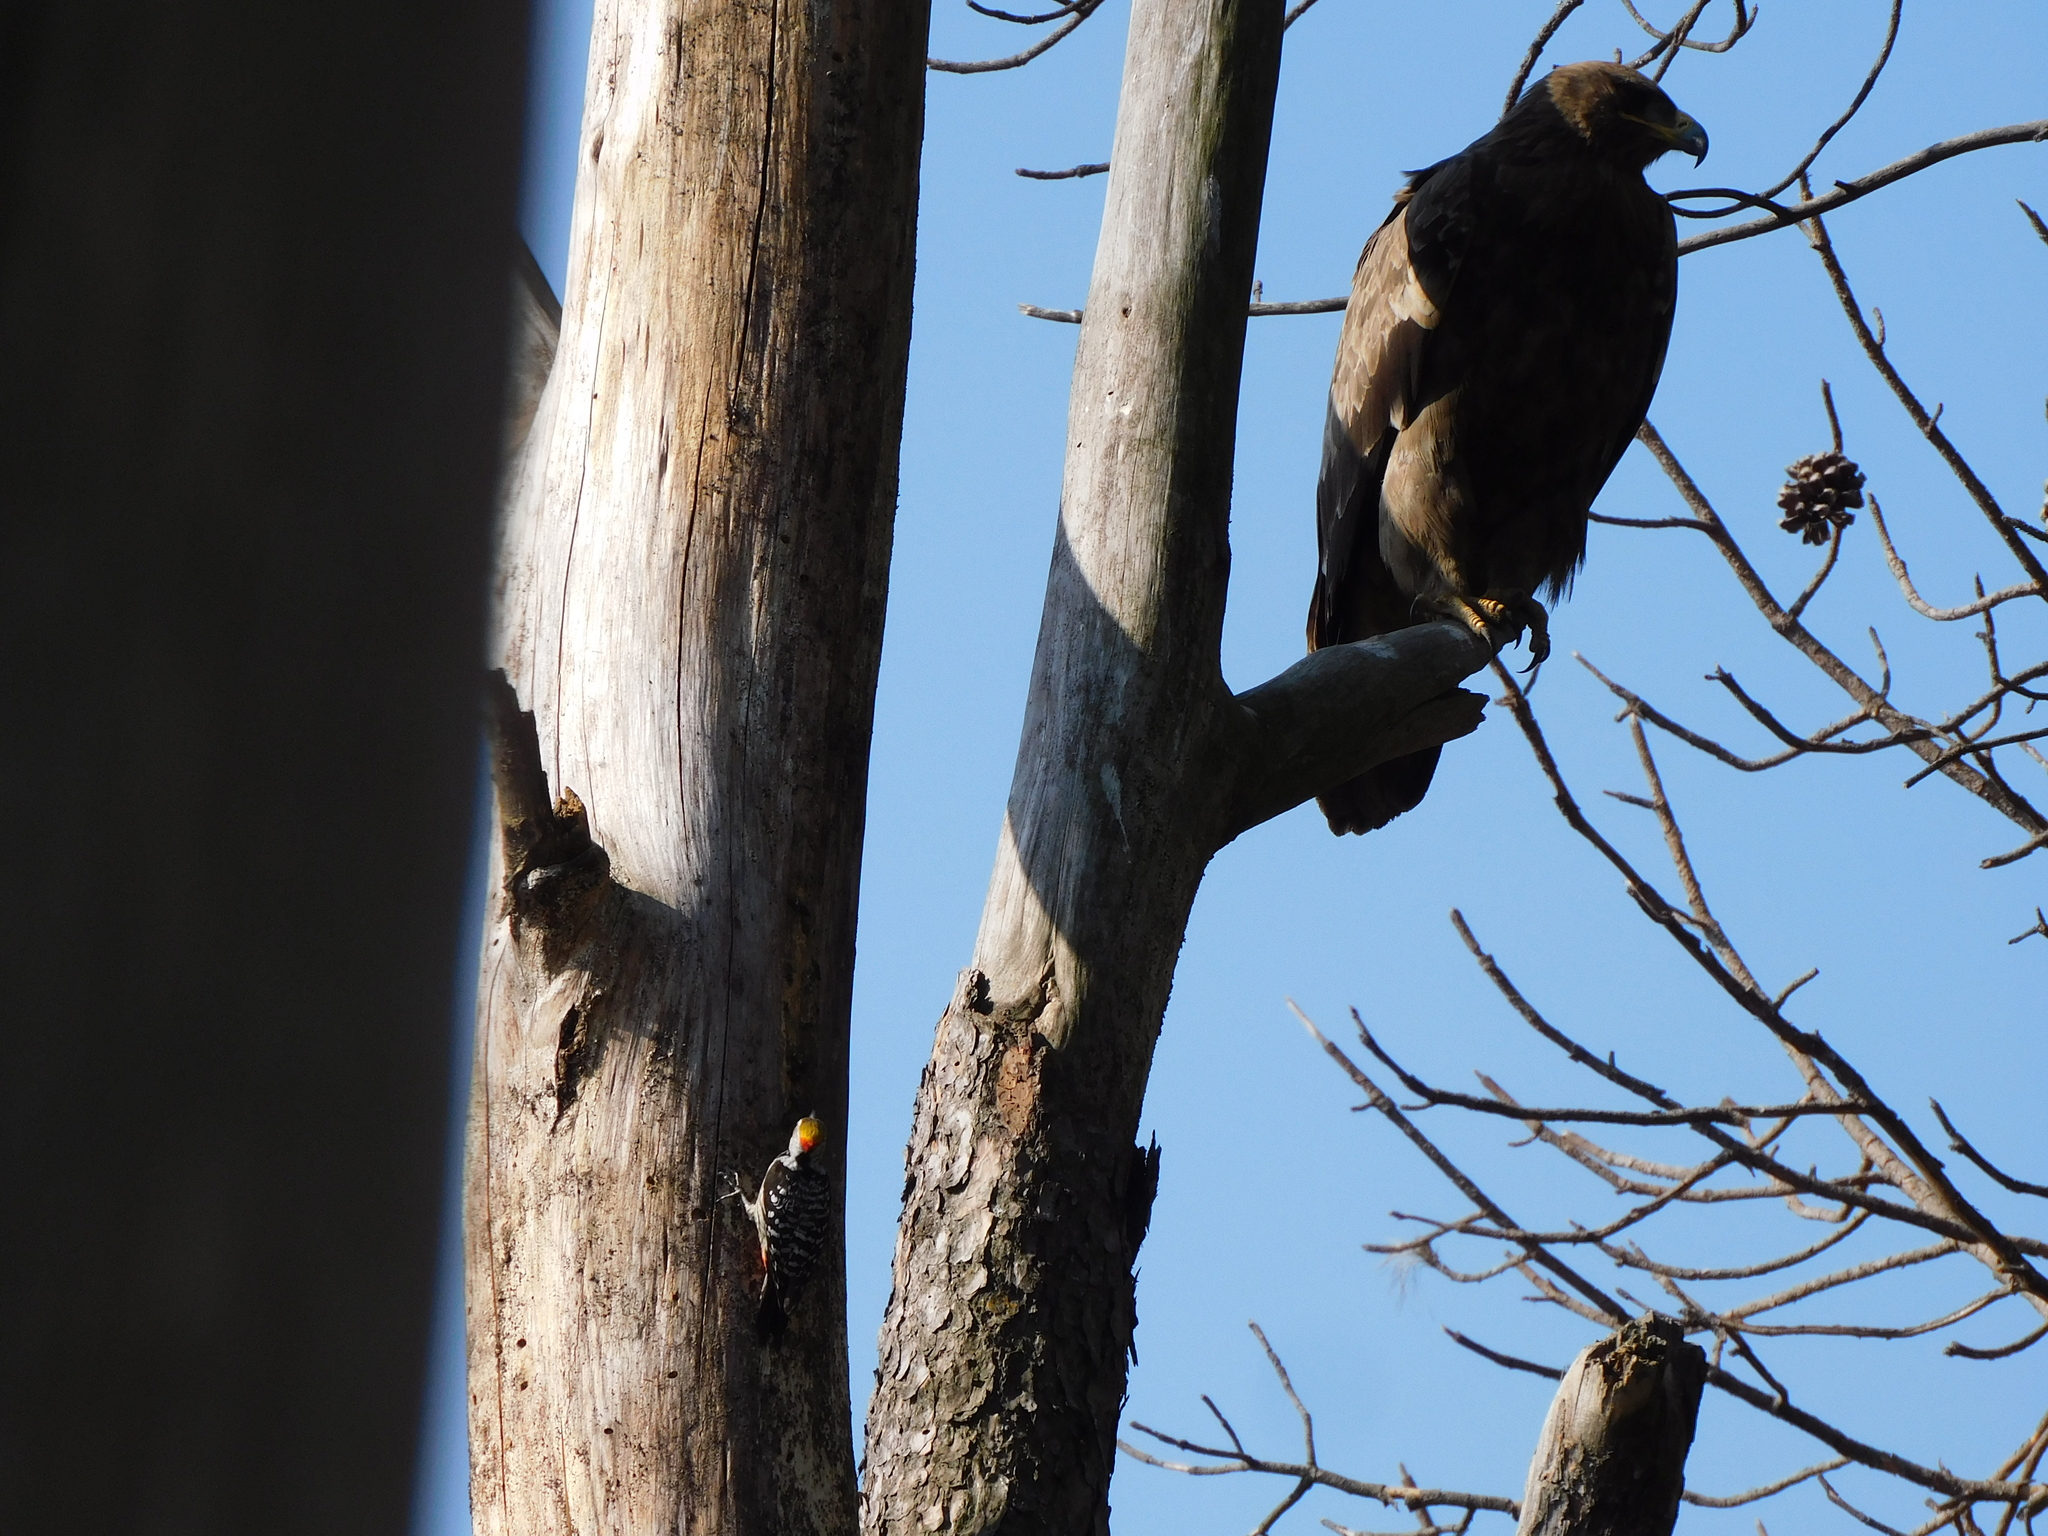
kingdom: Animalia
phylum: Chordata
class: Aves
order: Accipitriformes
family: Accipitridae
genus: Aquila
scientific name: Aquila nipalensis
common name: Steppe eagle
